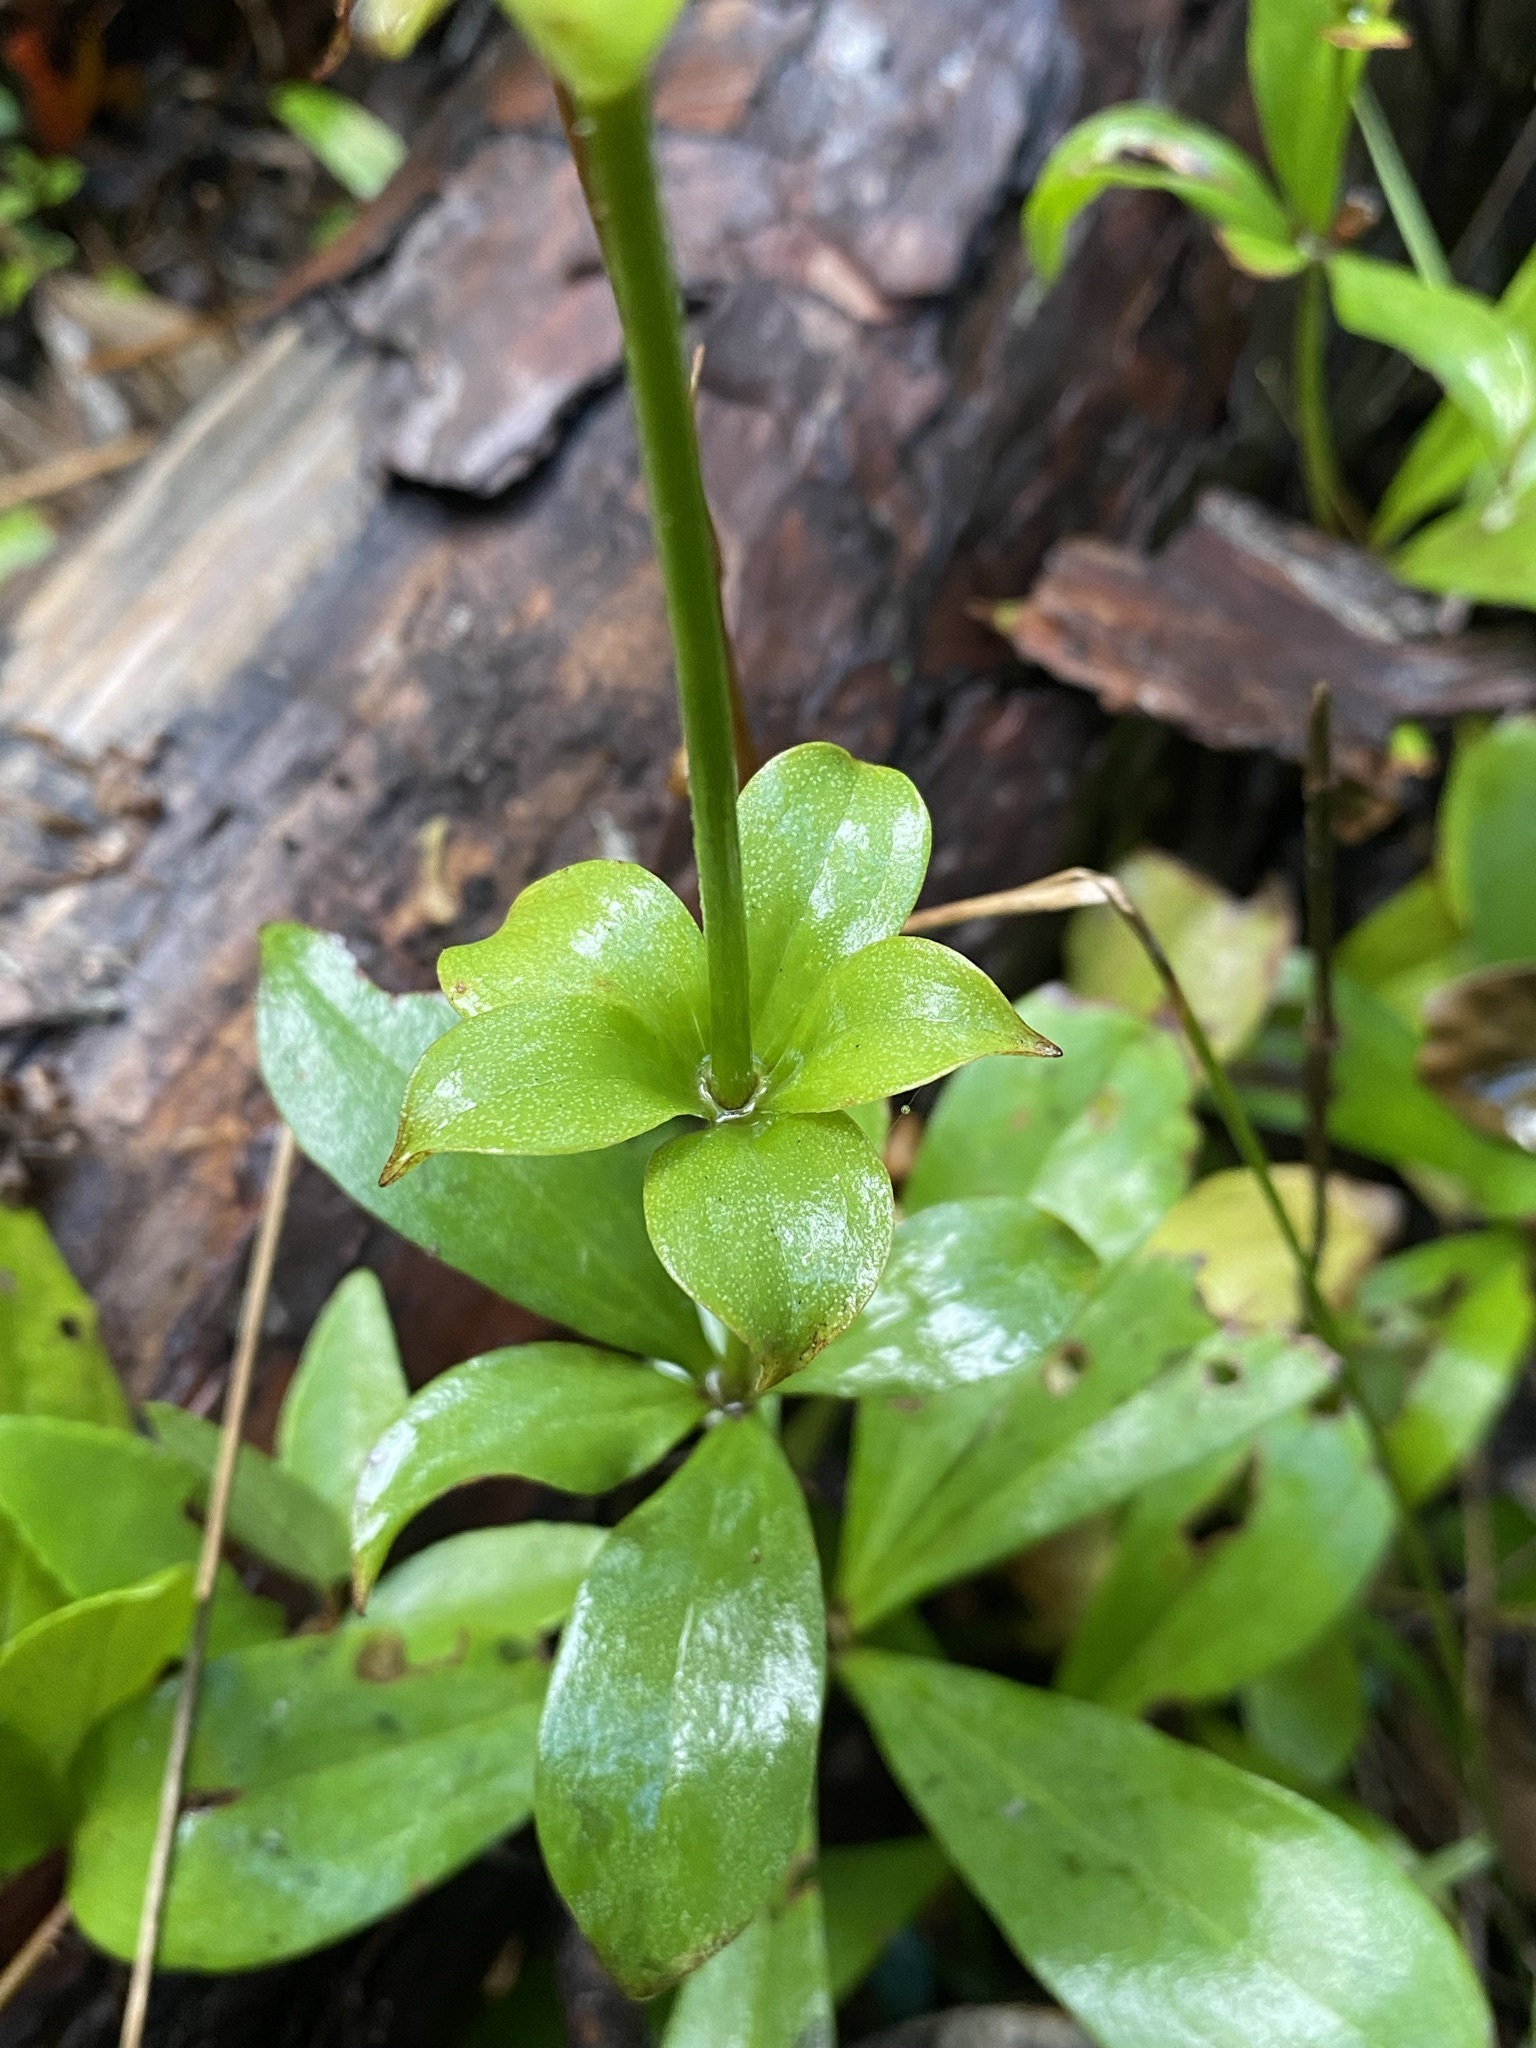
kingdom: Plantae
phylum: Tracheophyta
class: Liliopsida
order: Liliales
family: Liliaceae
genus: Lilium
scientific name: Lilium michauxii
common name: Carolina lily
